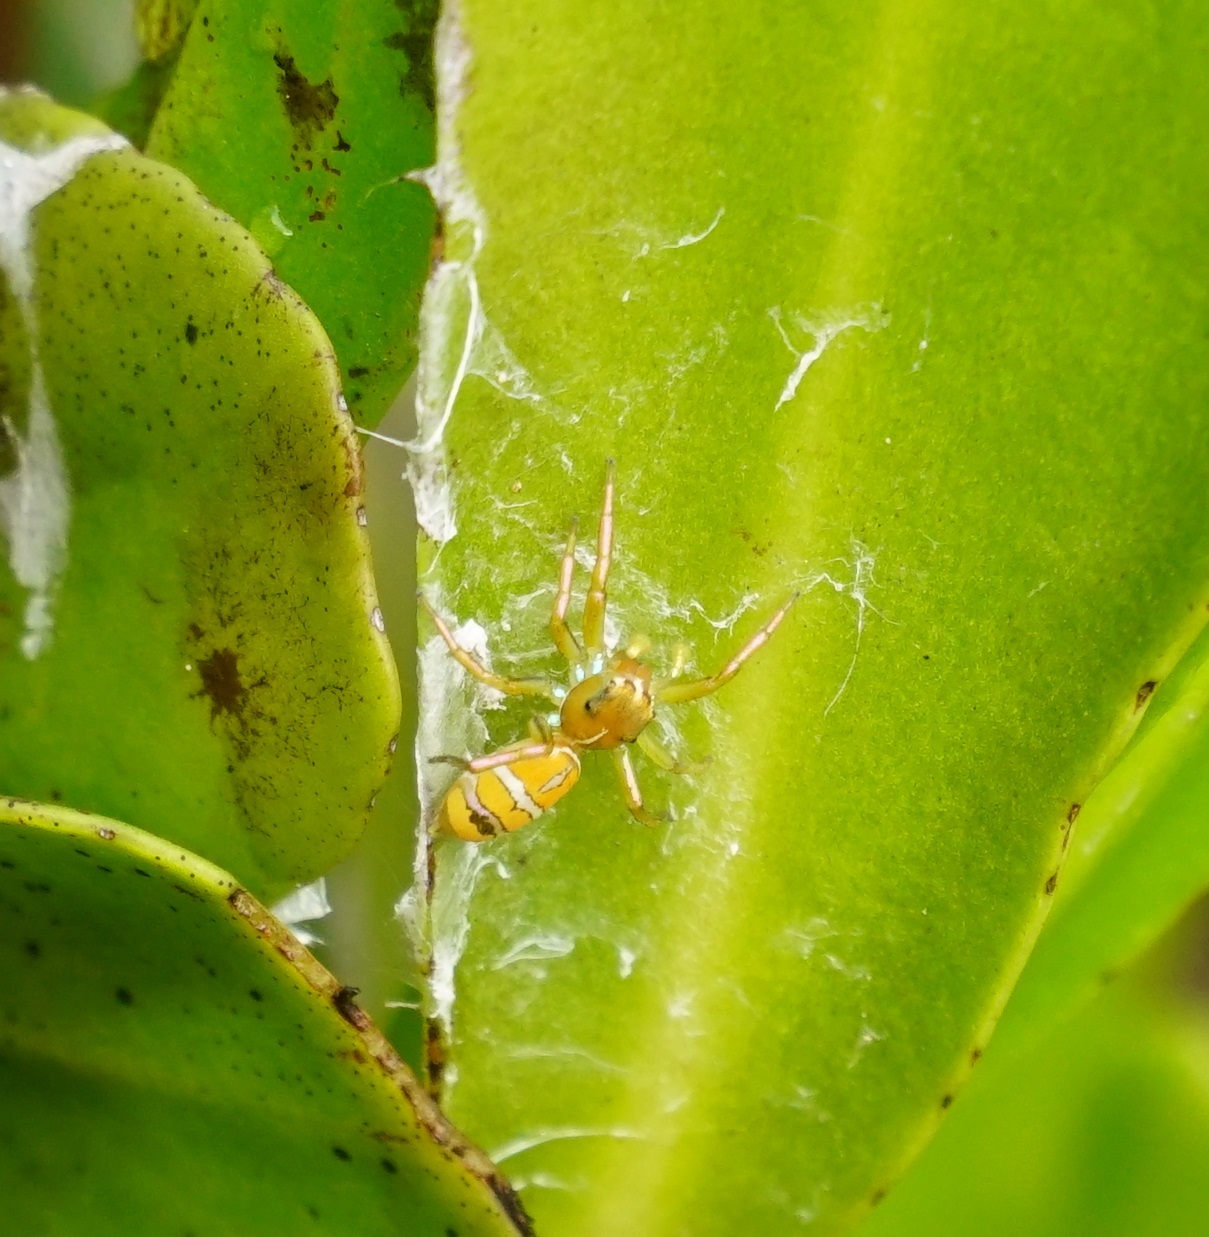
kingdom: Animalia
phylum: Arthropoda
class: Arachnida
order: Araneae
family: Salticidae
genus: Cosmophasis
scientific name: Cosmophasis bitaeniata
